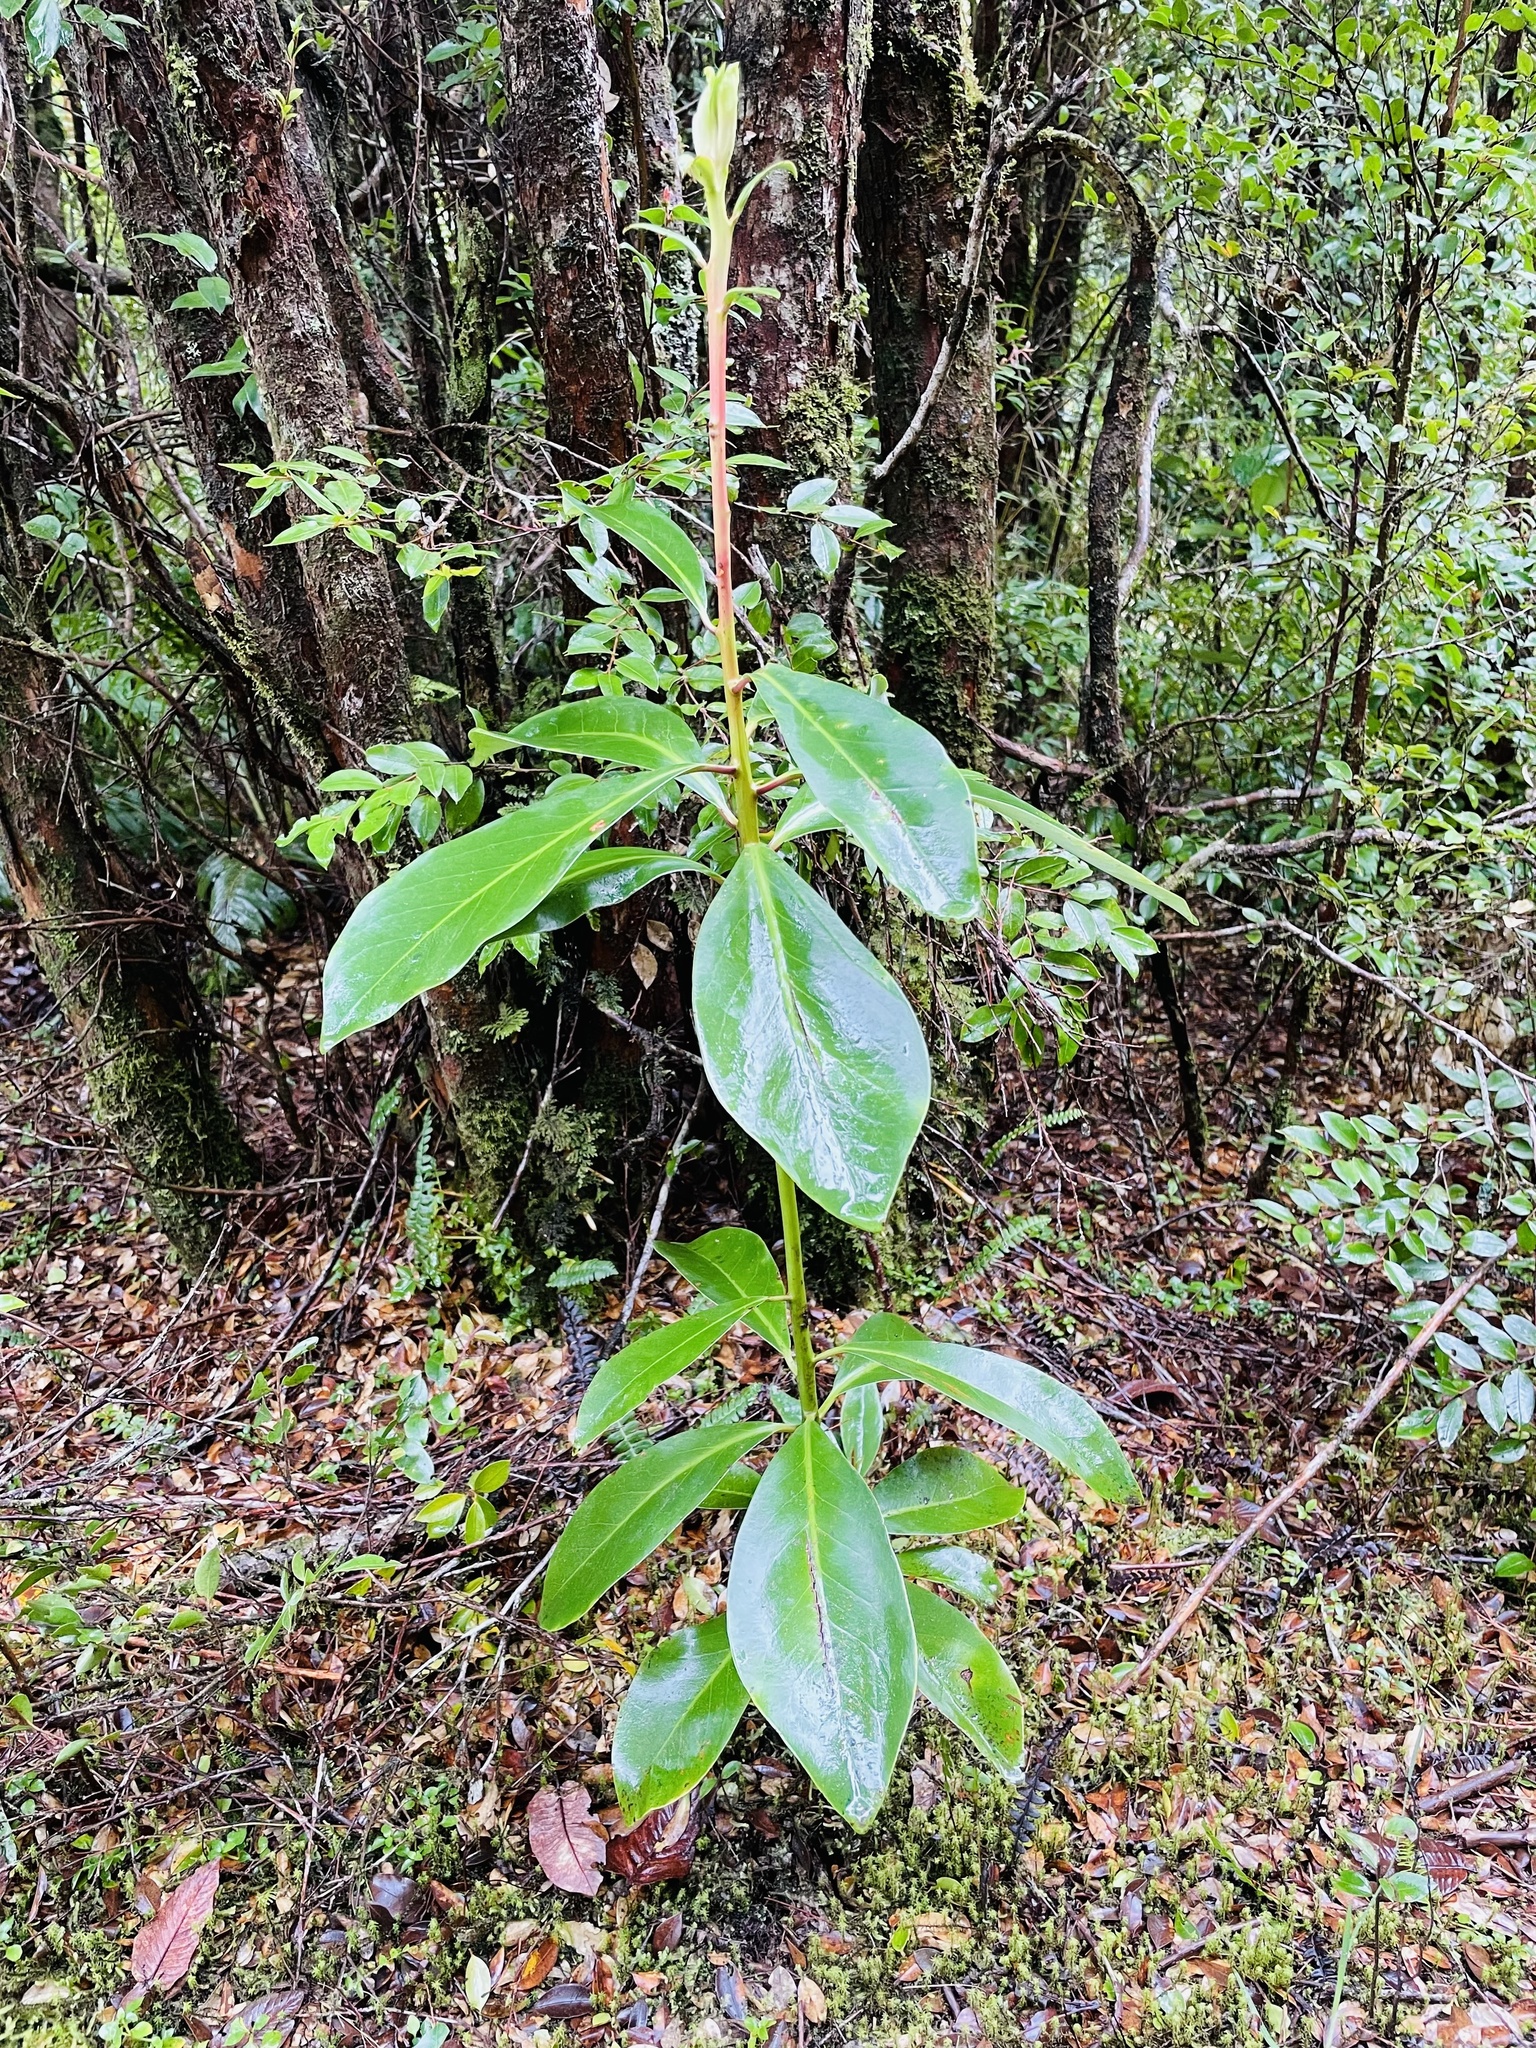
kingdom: Plantae
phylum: Tracheophyta
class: Magnoliopsida
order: Canellales
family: Winteraceae
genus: Drimys
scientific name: Drimys winteri
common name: Winter's-bark
